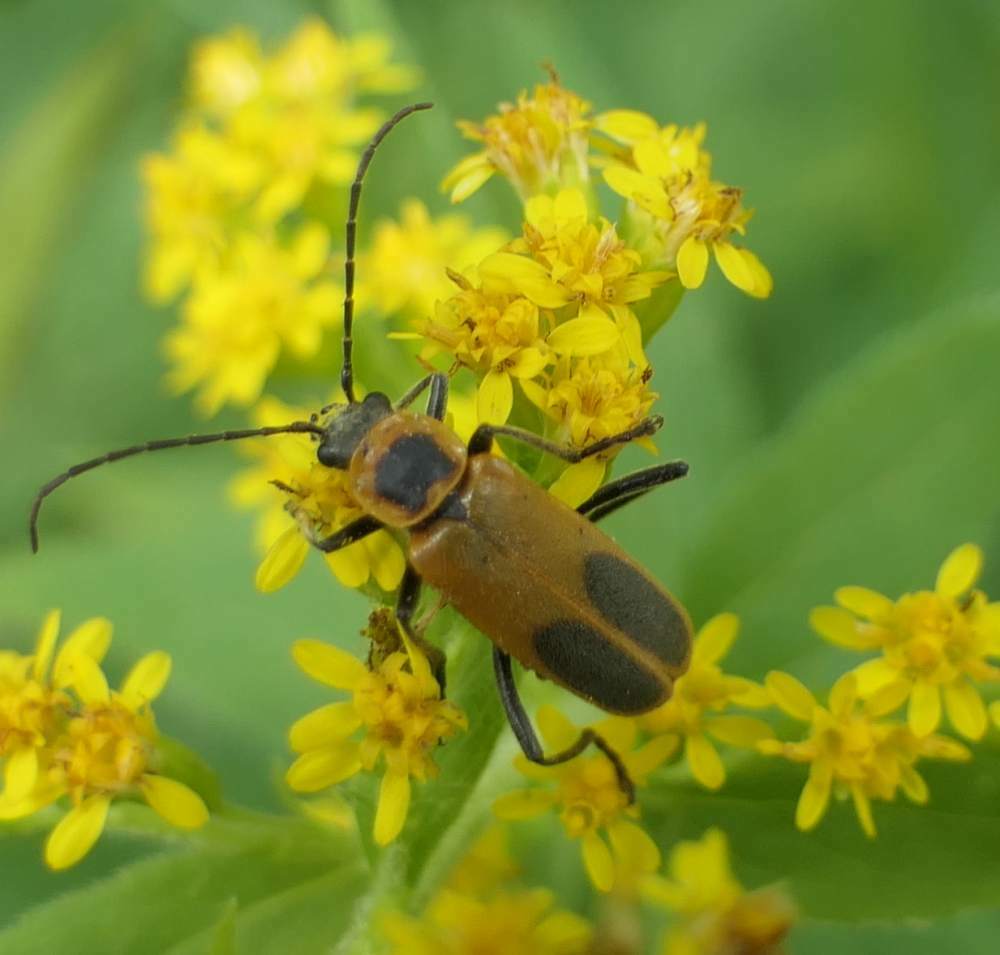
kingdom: Animalia
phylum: Arthropoda
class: Insecta
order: Coleoptera
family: Cantharidae
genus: Chauliognathus
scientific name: Chauliognathus pensylvanicus
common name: Goldenrod soldier beetle
